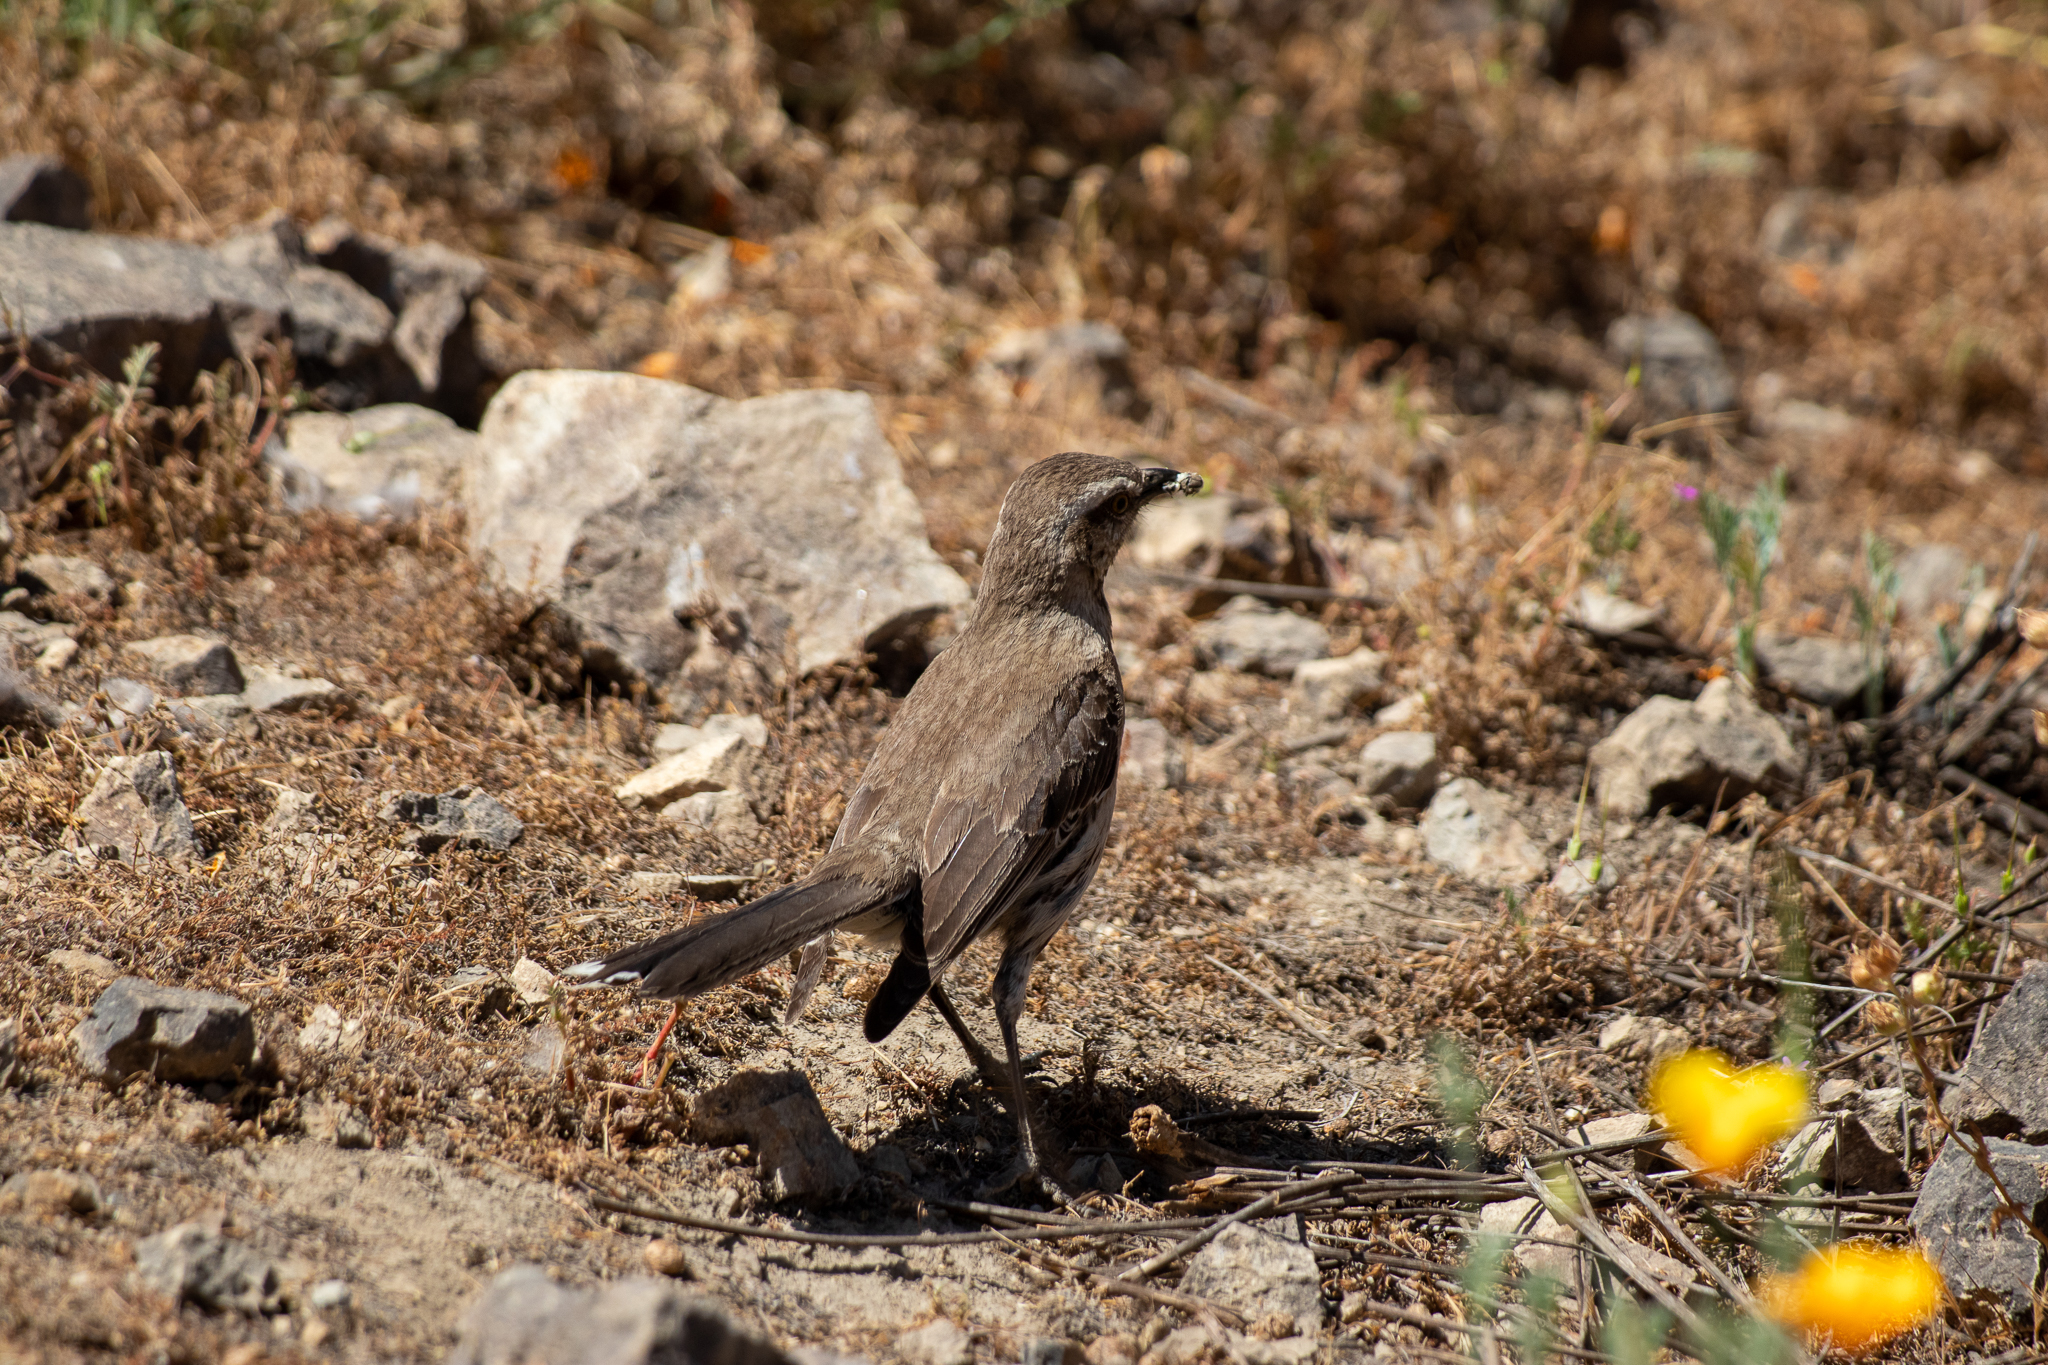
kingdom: Animalia
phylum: Chordata
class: Aves
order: Passeriformes
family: Mimidae
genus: Mimus
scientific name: Mimus thenca
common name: Chilean mockingbird
